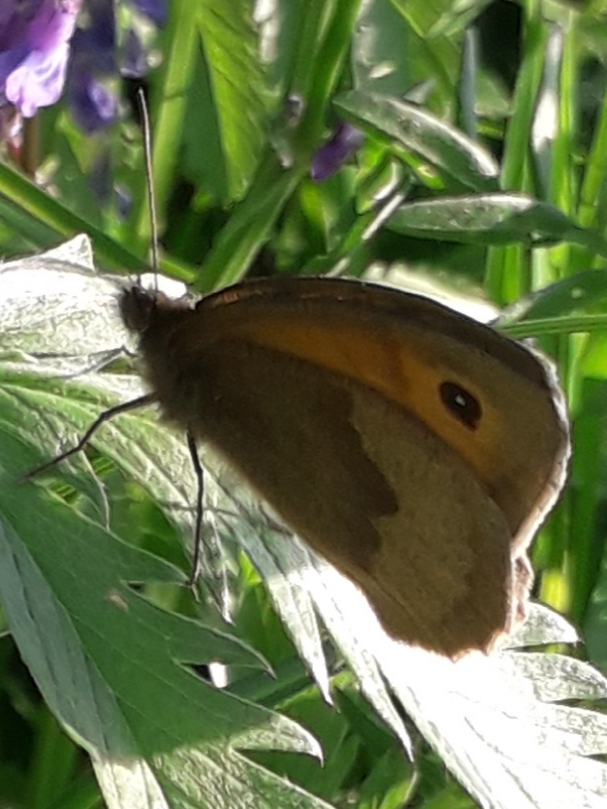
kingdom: Animalia
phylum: Arthropoda
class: Insecta
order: Lepidoptera
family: Nymphalidae
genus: Maniola
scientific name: Maniola jurtina
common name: Meadow brown
